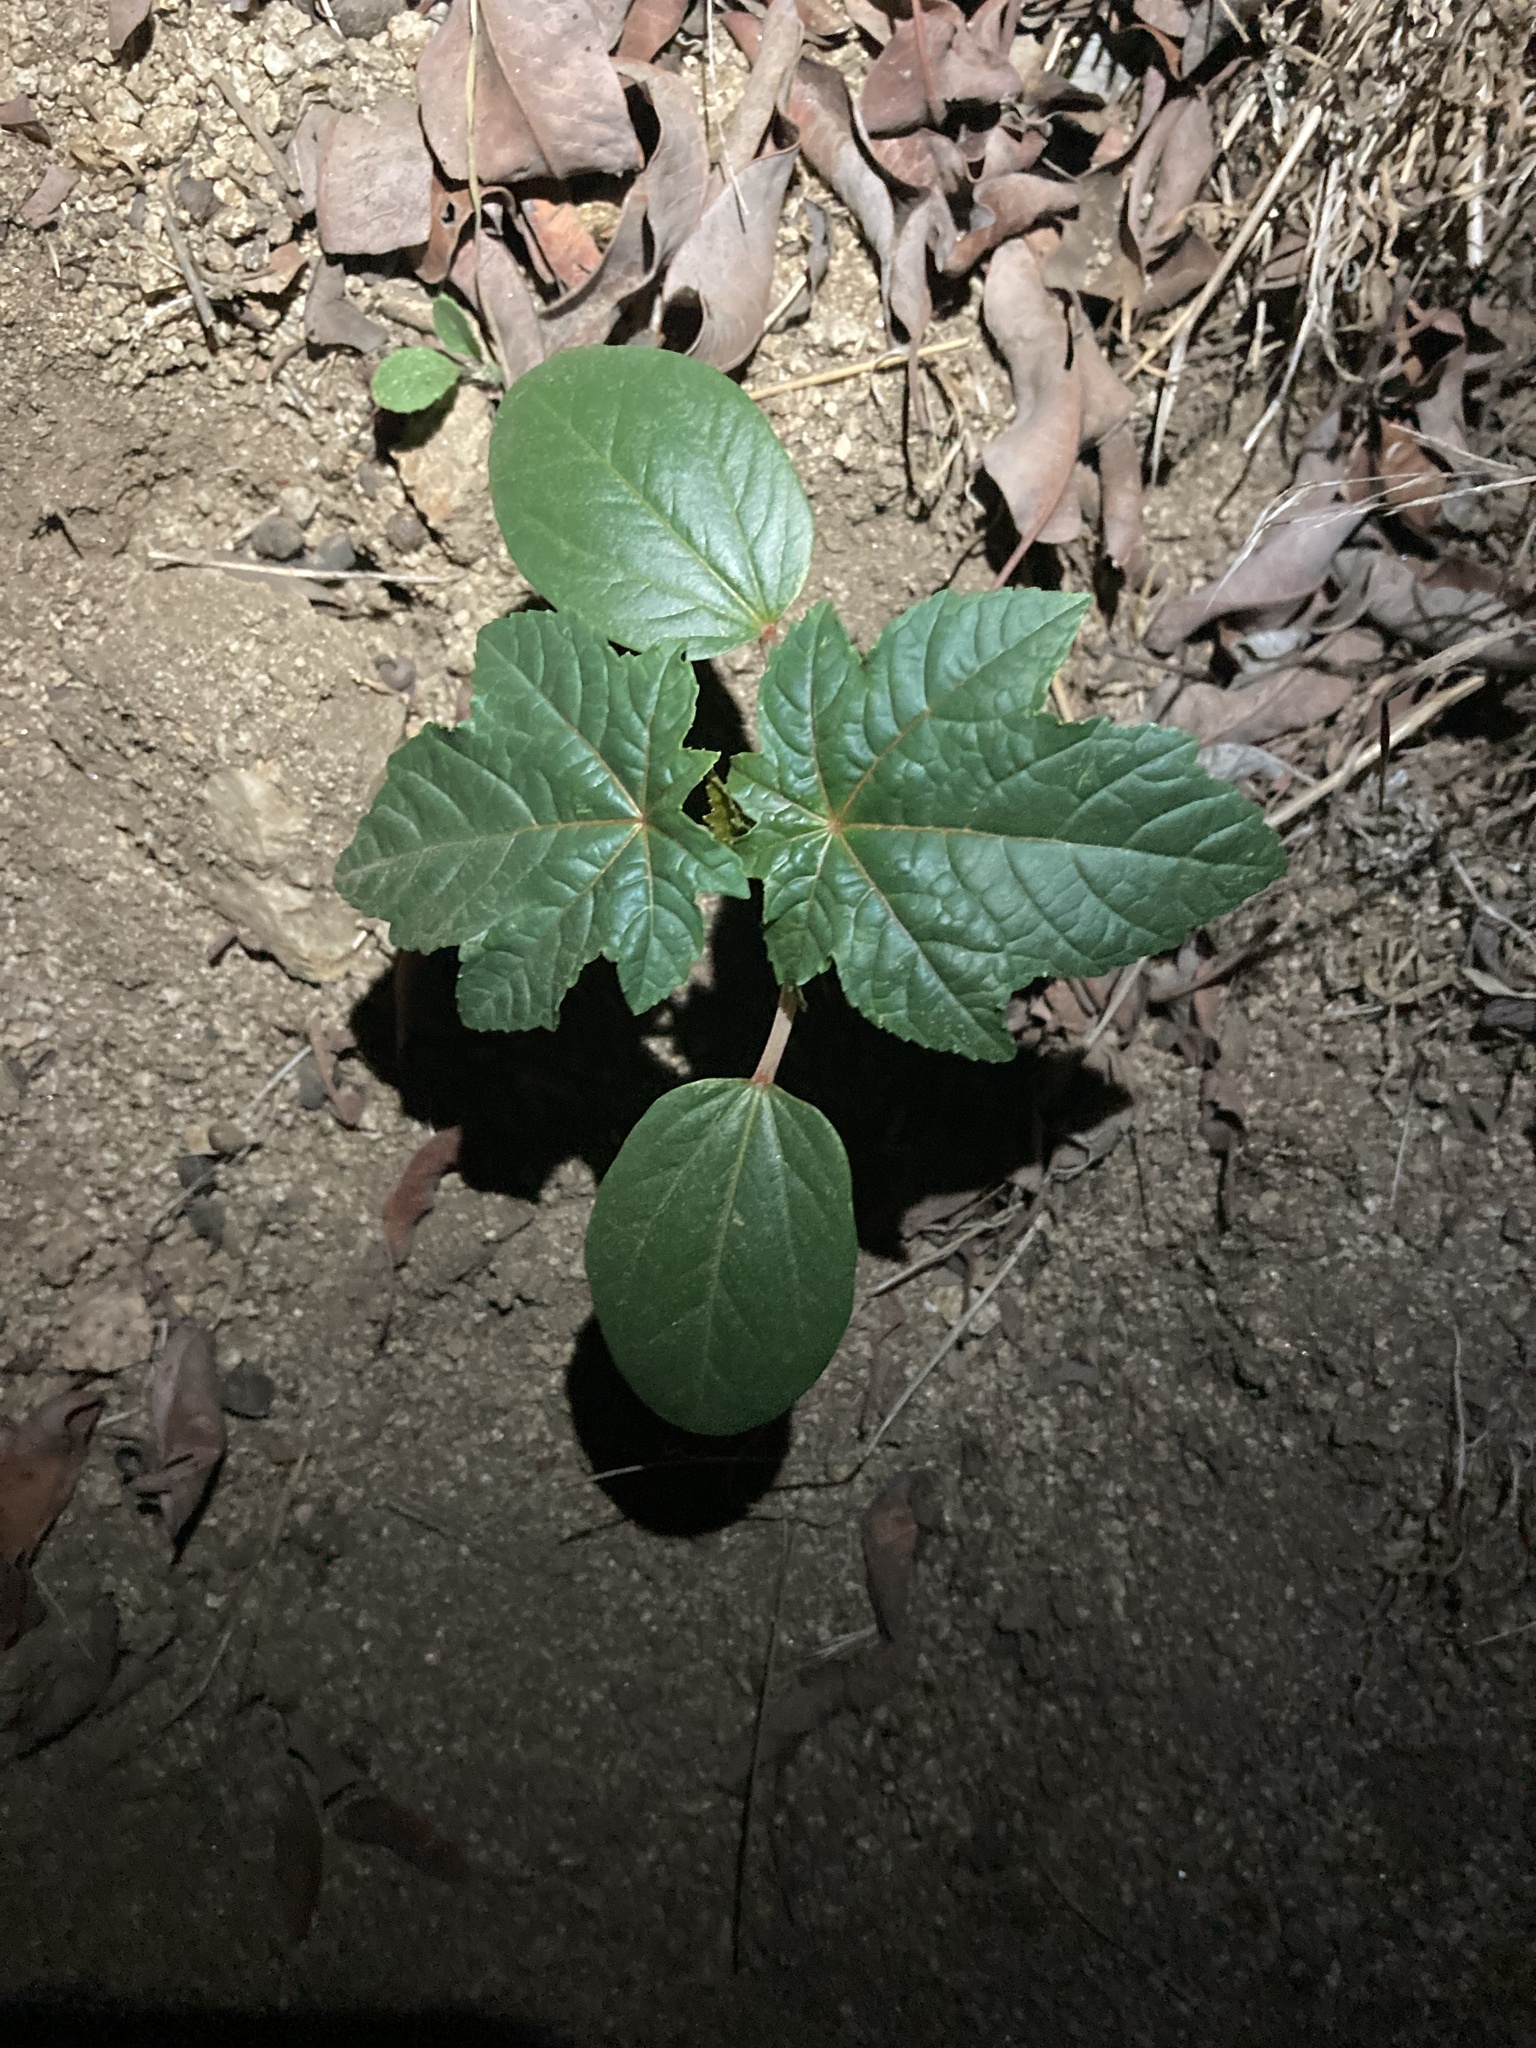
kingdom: Plantae
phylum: Tracheophyta
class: Magnoliopsida
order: Malpighiales
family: Euphorbiaceae
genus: Ricinus
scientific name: Ricinus communis
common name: Castor-oil-plant
